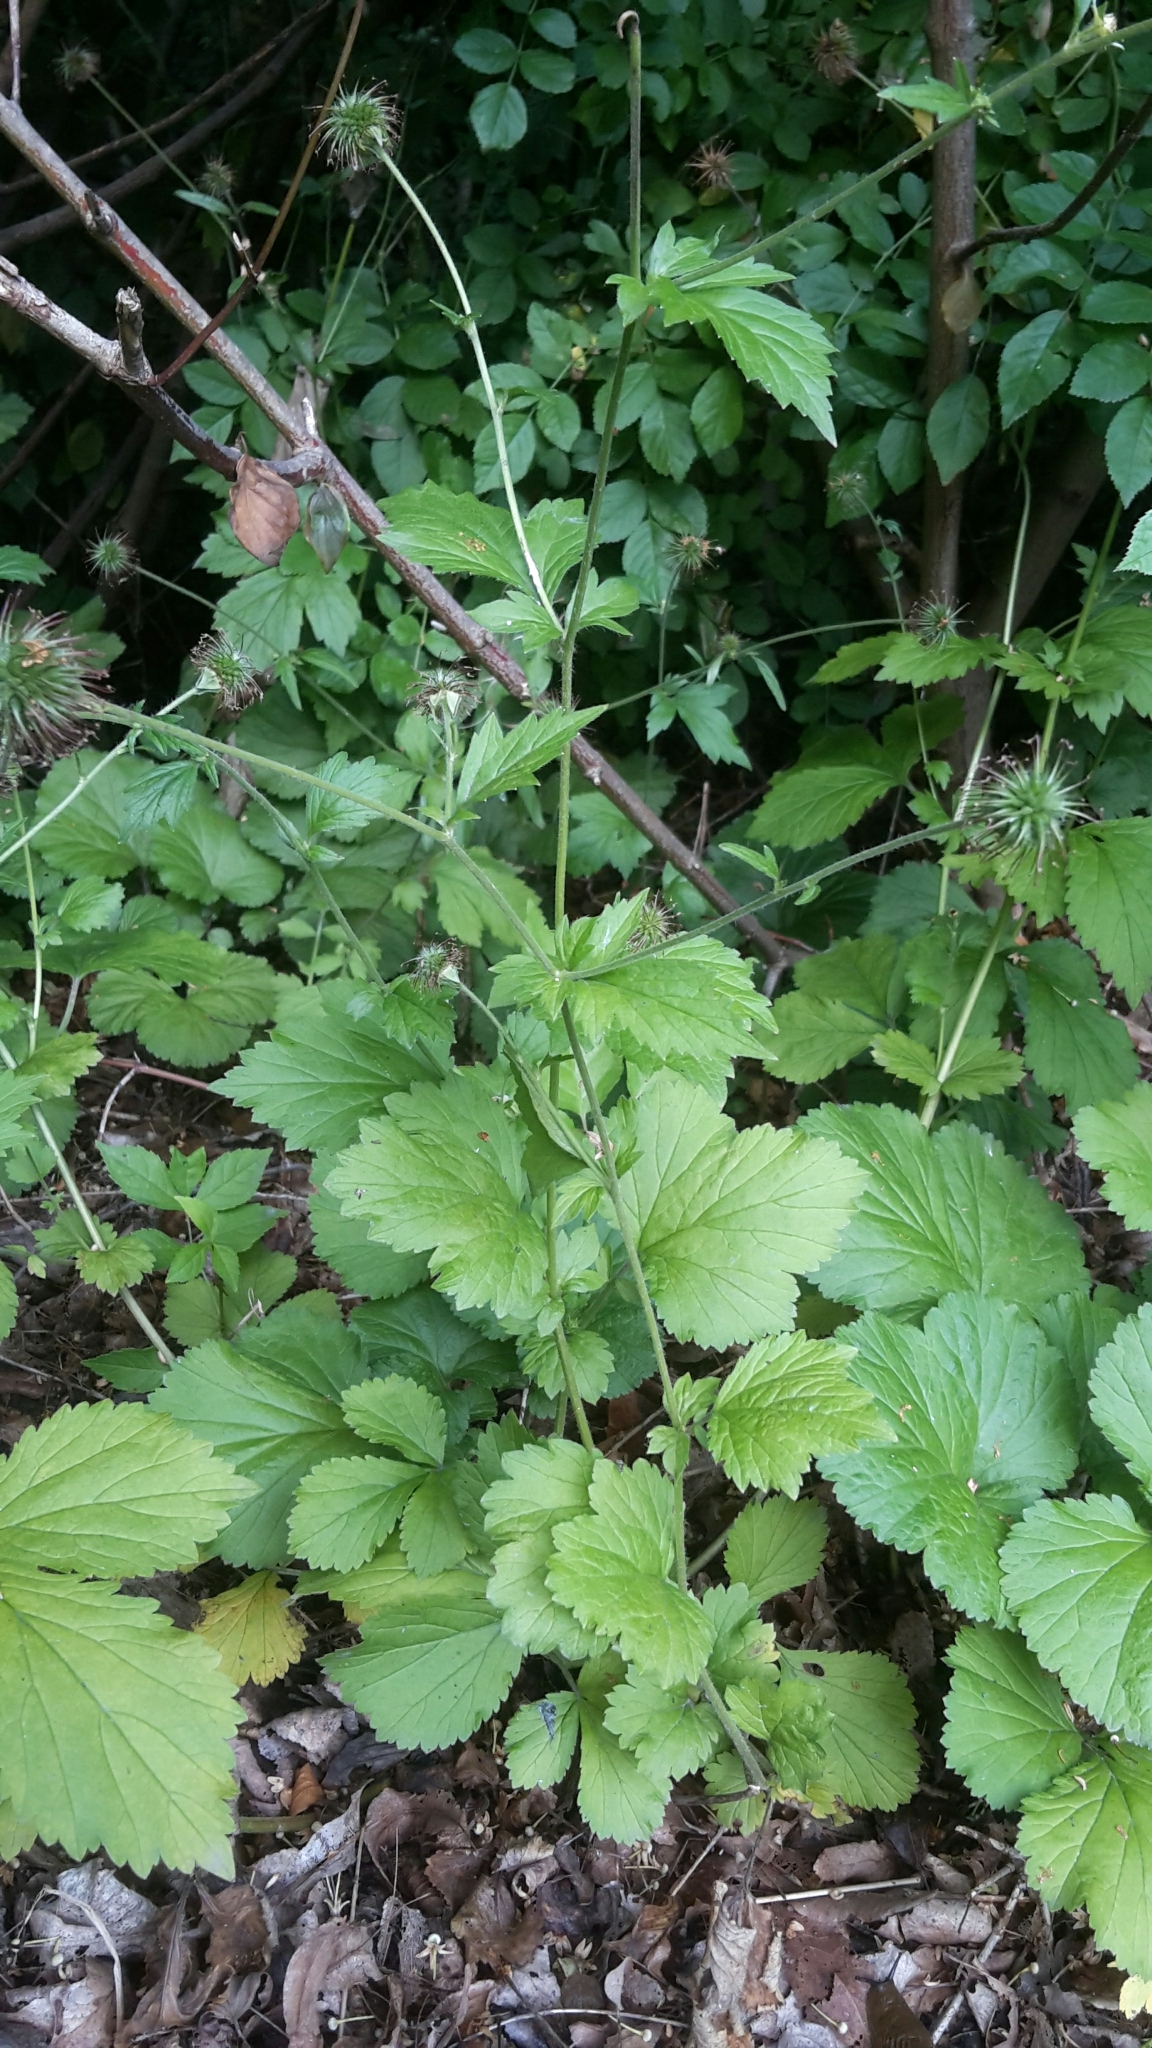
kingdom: Plantae
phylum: Tracheophyta
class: Magnoliopsida
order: Rosales
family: Rosaceae
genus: Geum
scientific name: Geum urbanum
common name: Wood avens
